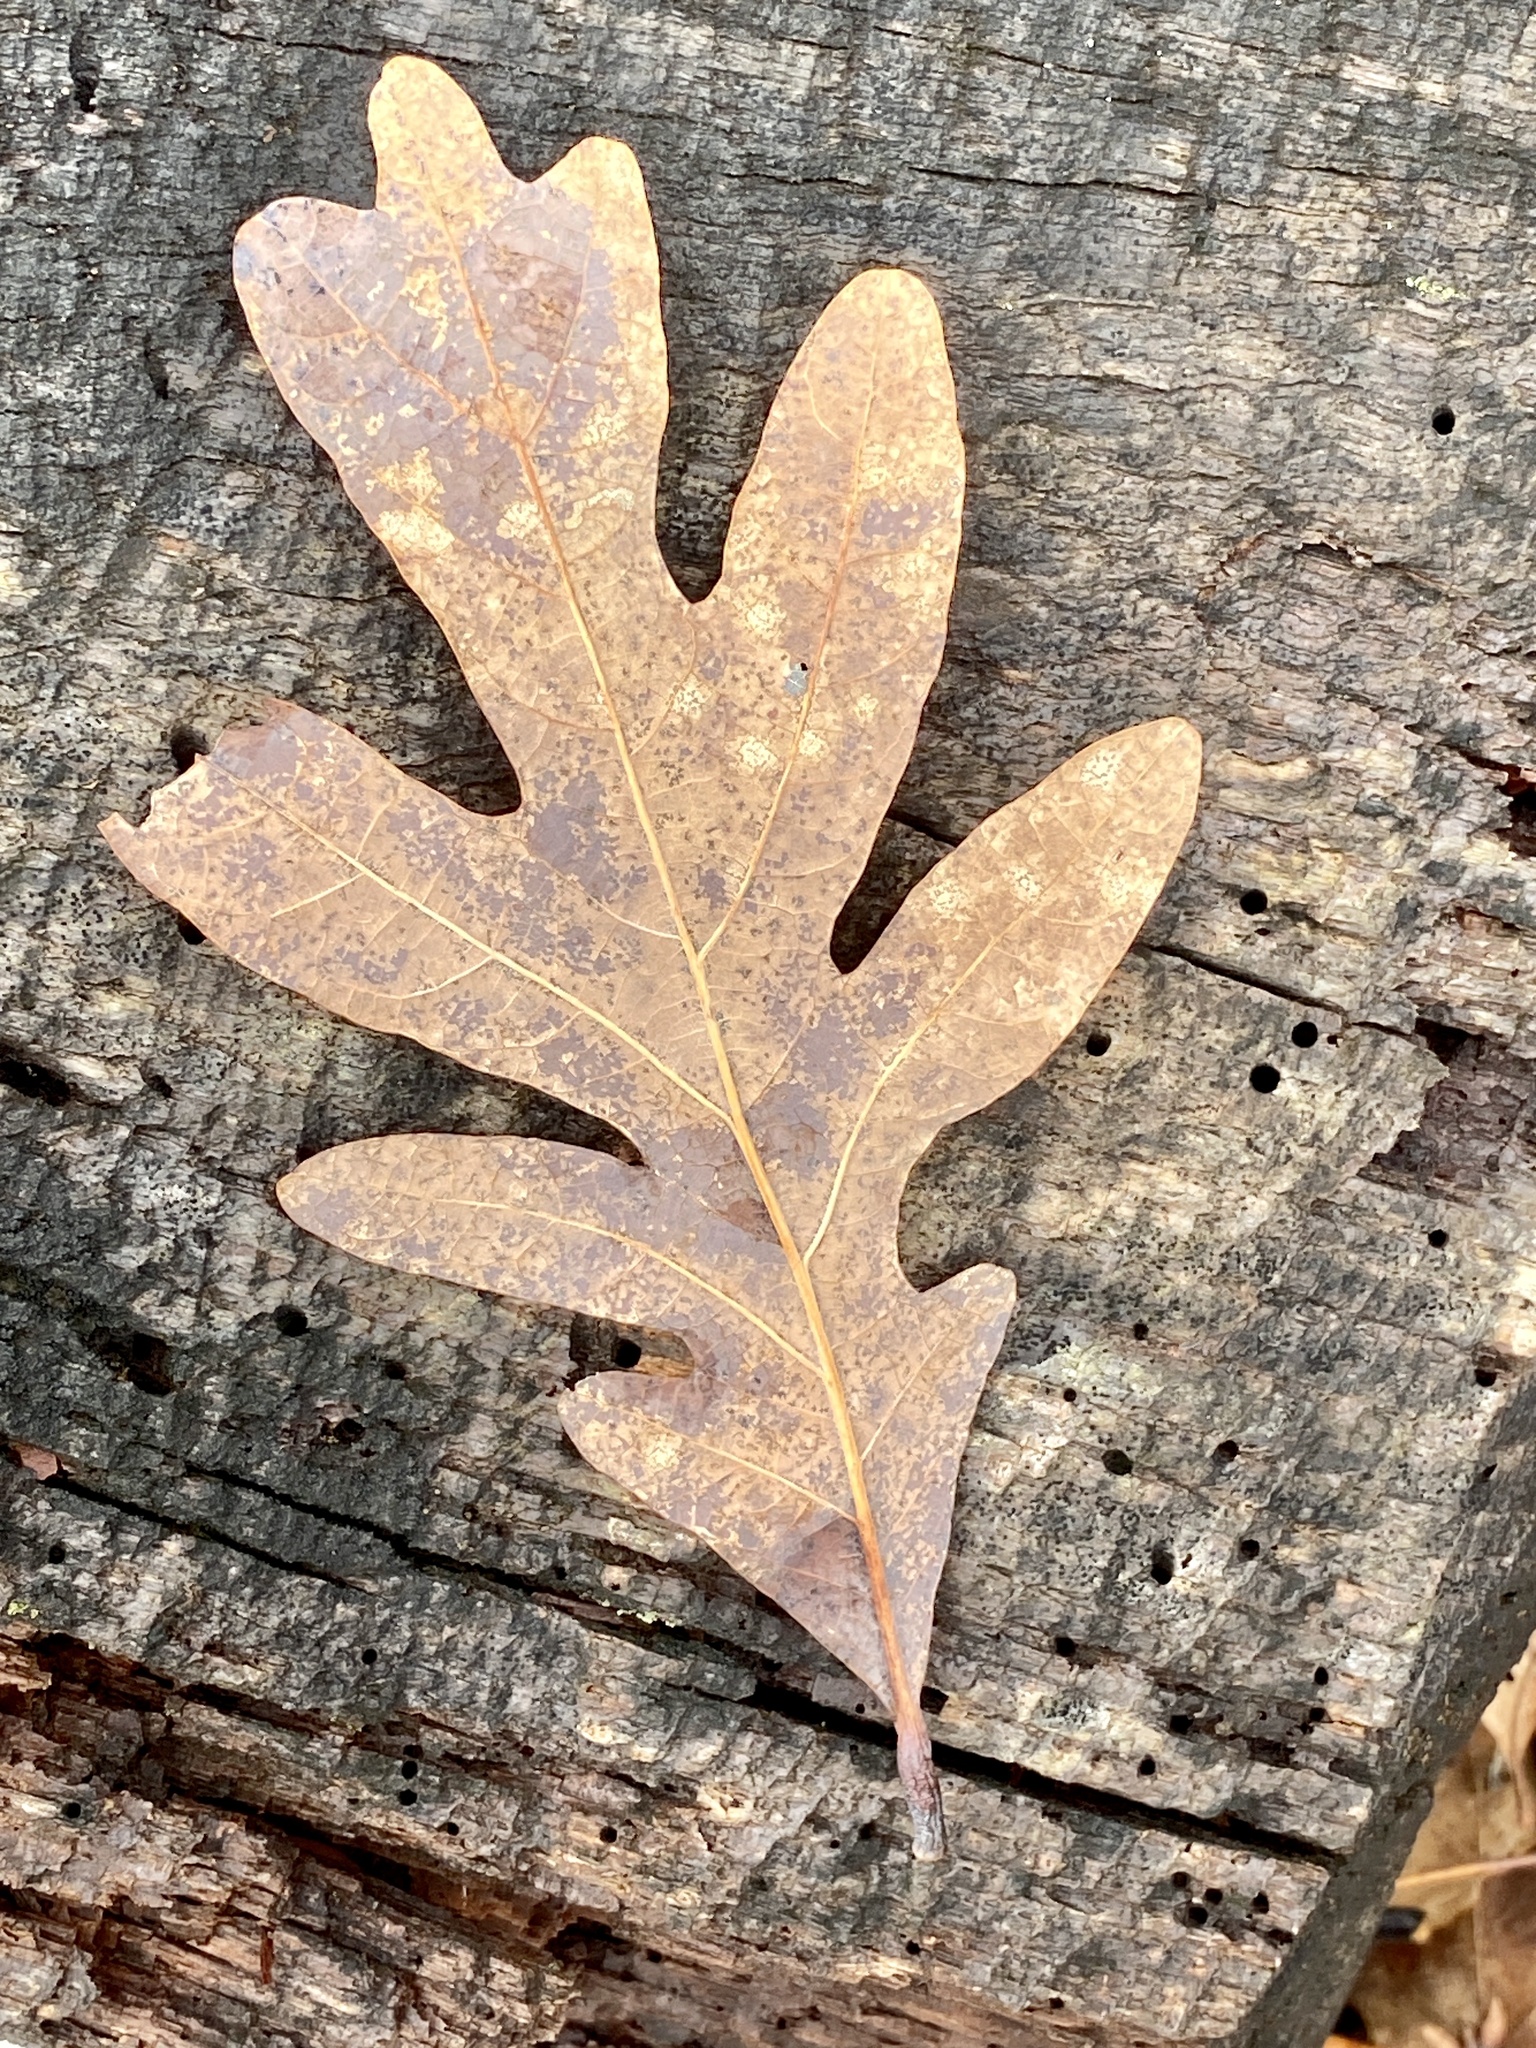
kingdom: Plantae
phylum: Tracheophyta
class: Magnoliopsida
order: Fagales
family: Fagaceae
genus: Quercus
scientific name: Quercus alba
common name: White oak
